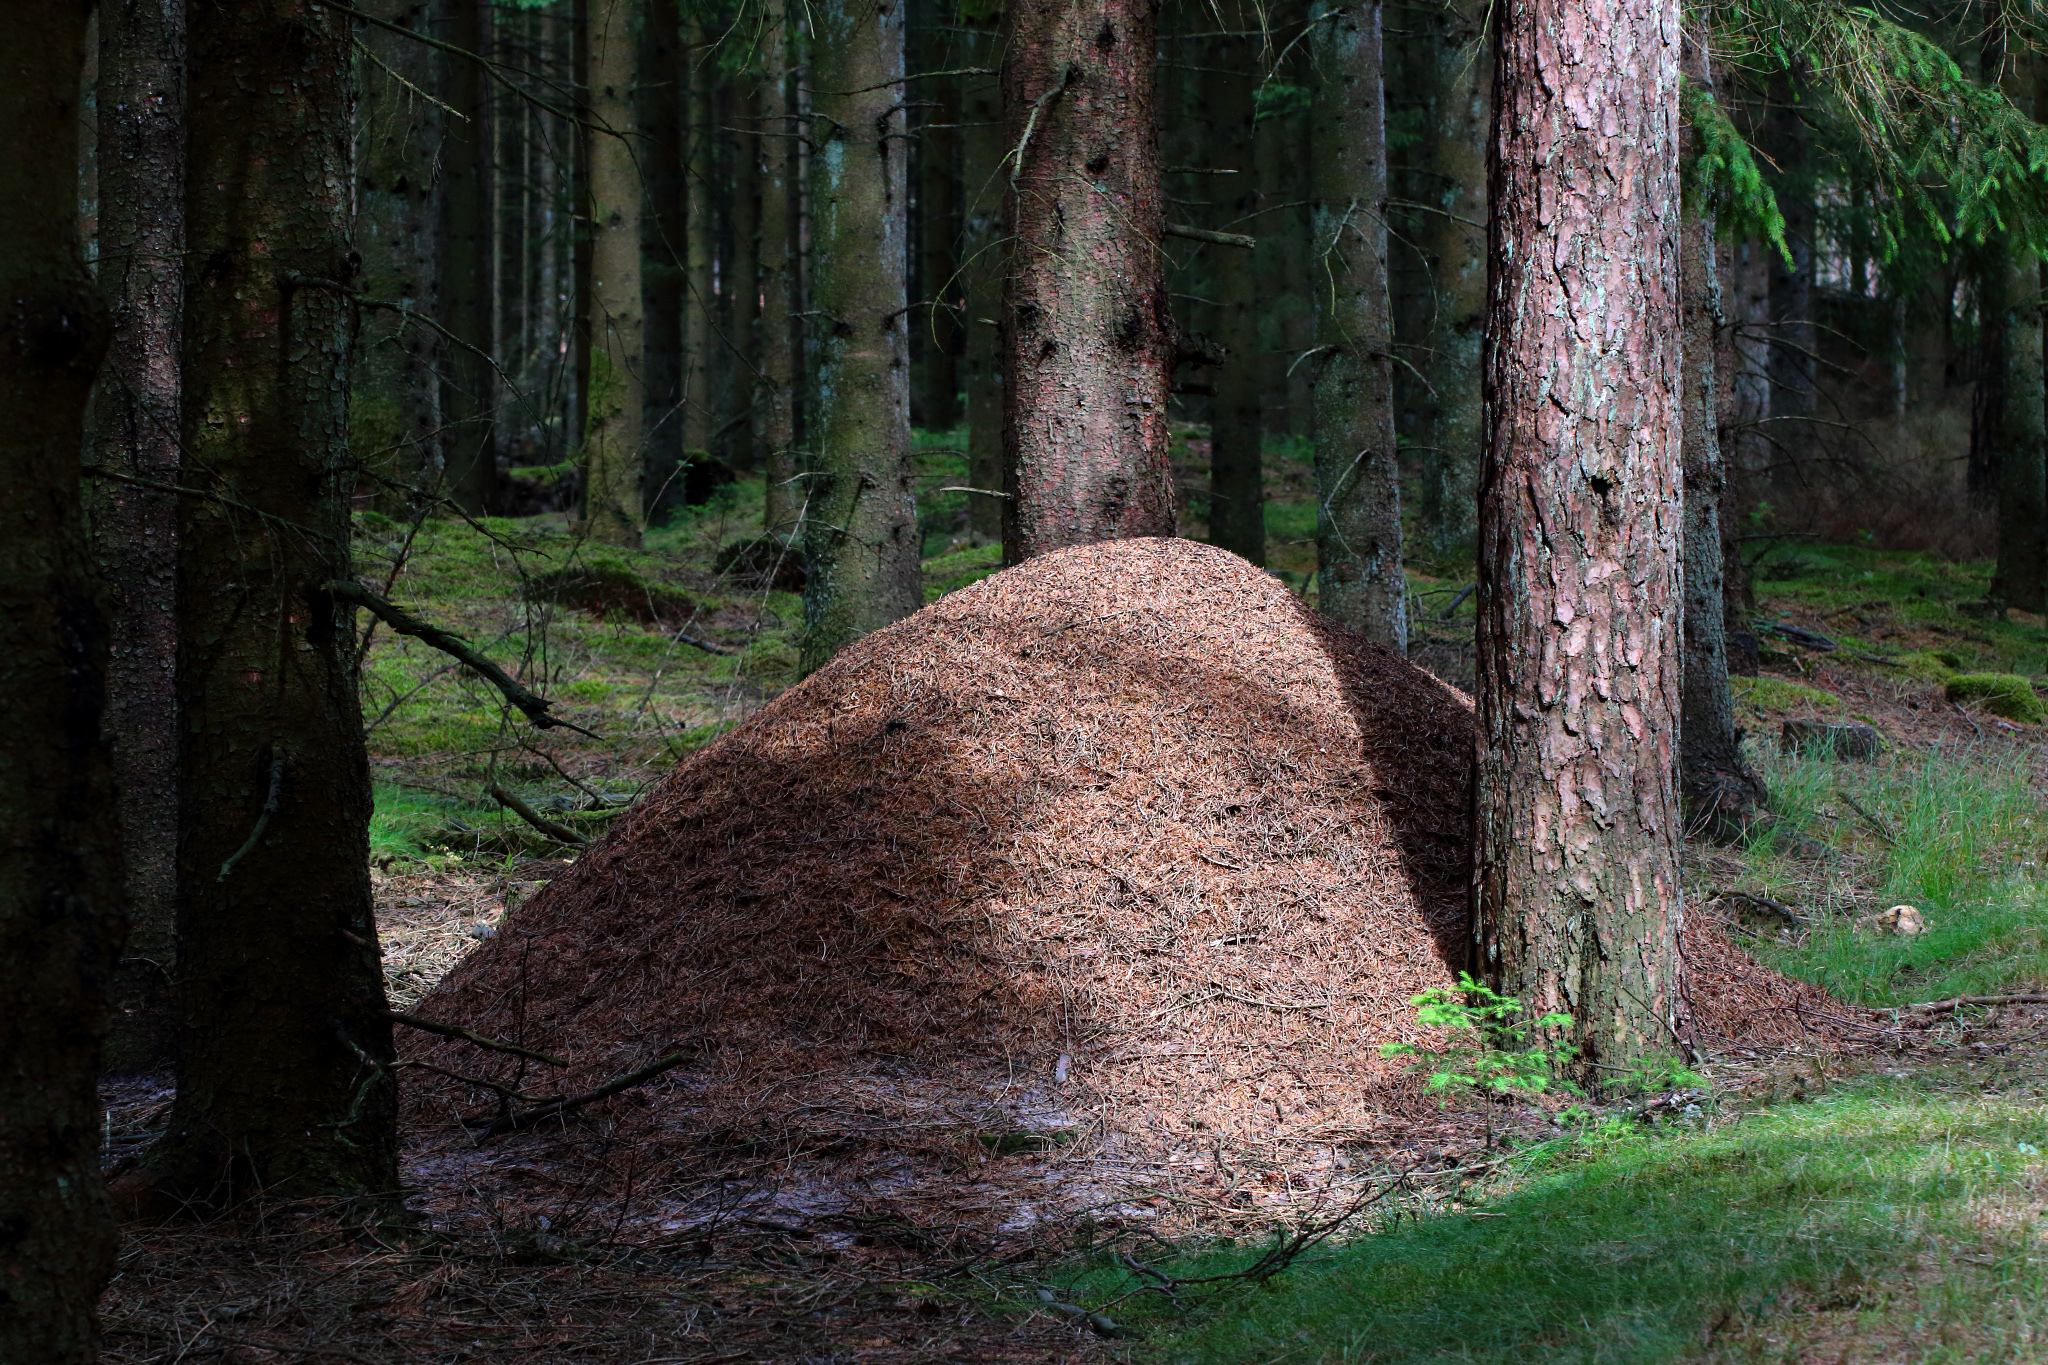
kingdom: Animalia
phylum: Arthropoda
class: Insecta
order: Hymenoptera
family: Formicidae
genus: Formica
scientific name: Formica rufa
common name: Red wood ant
